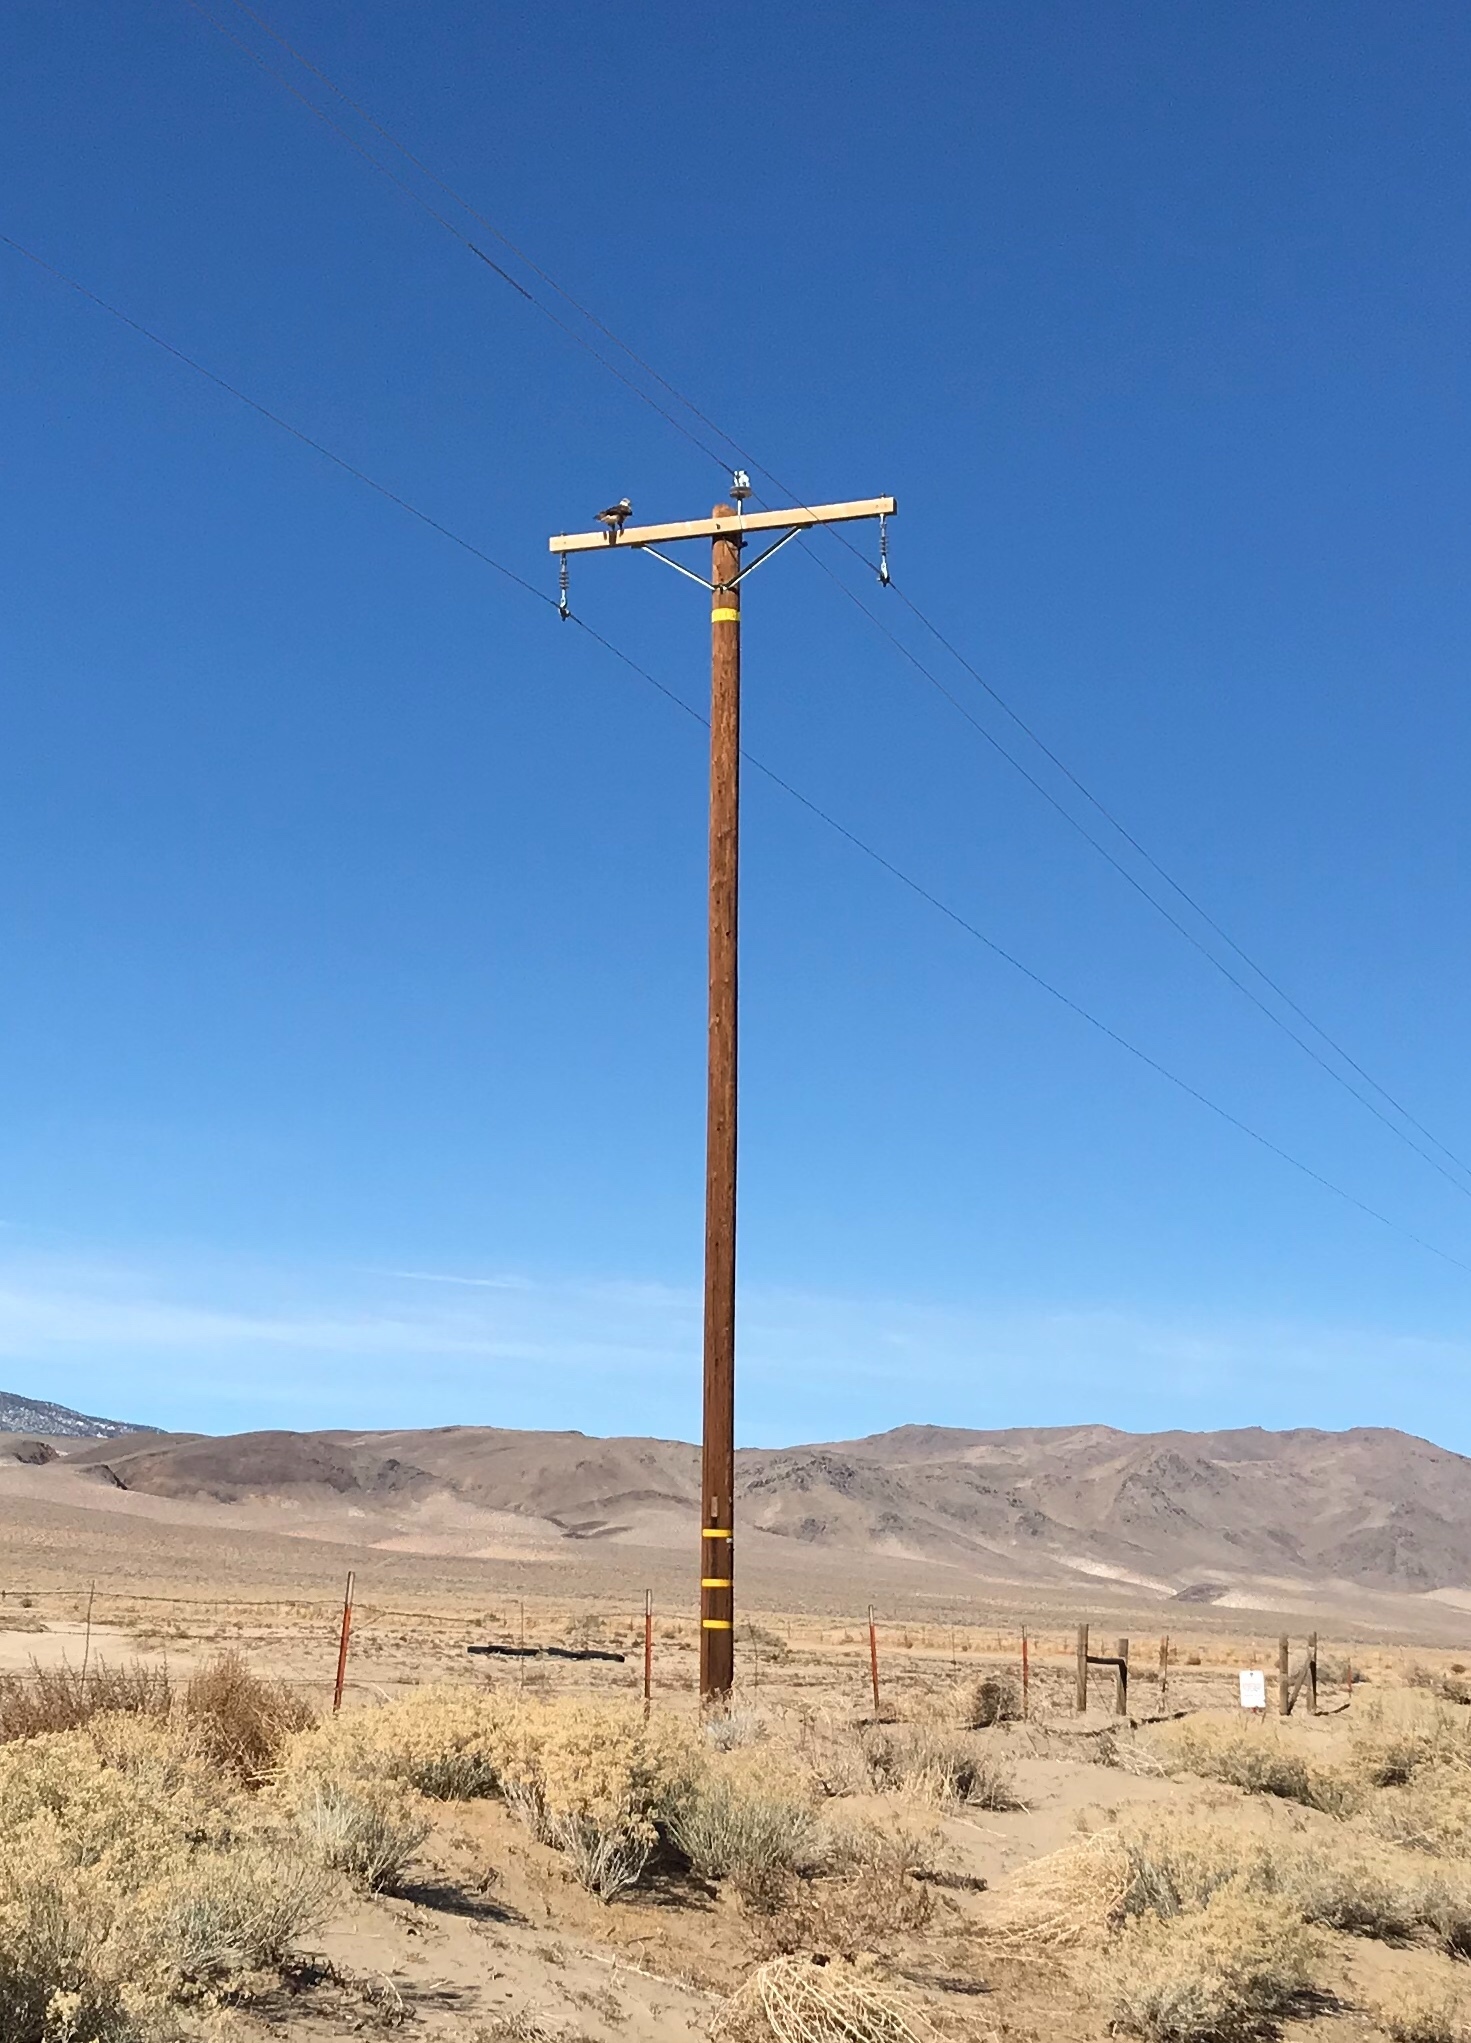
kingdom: Animalia
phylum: Chordata
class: Aves
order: Accipitriformes
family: Accipitridae
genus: Buteo
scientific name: Buteo jamaicensis
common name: Red-tailed hawk
